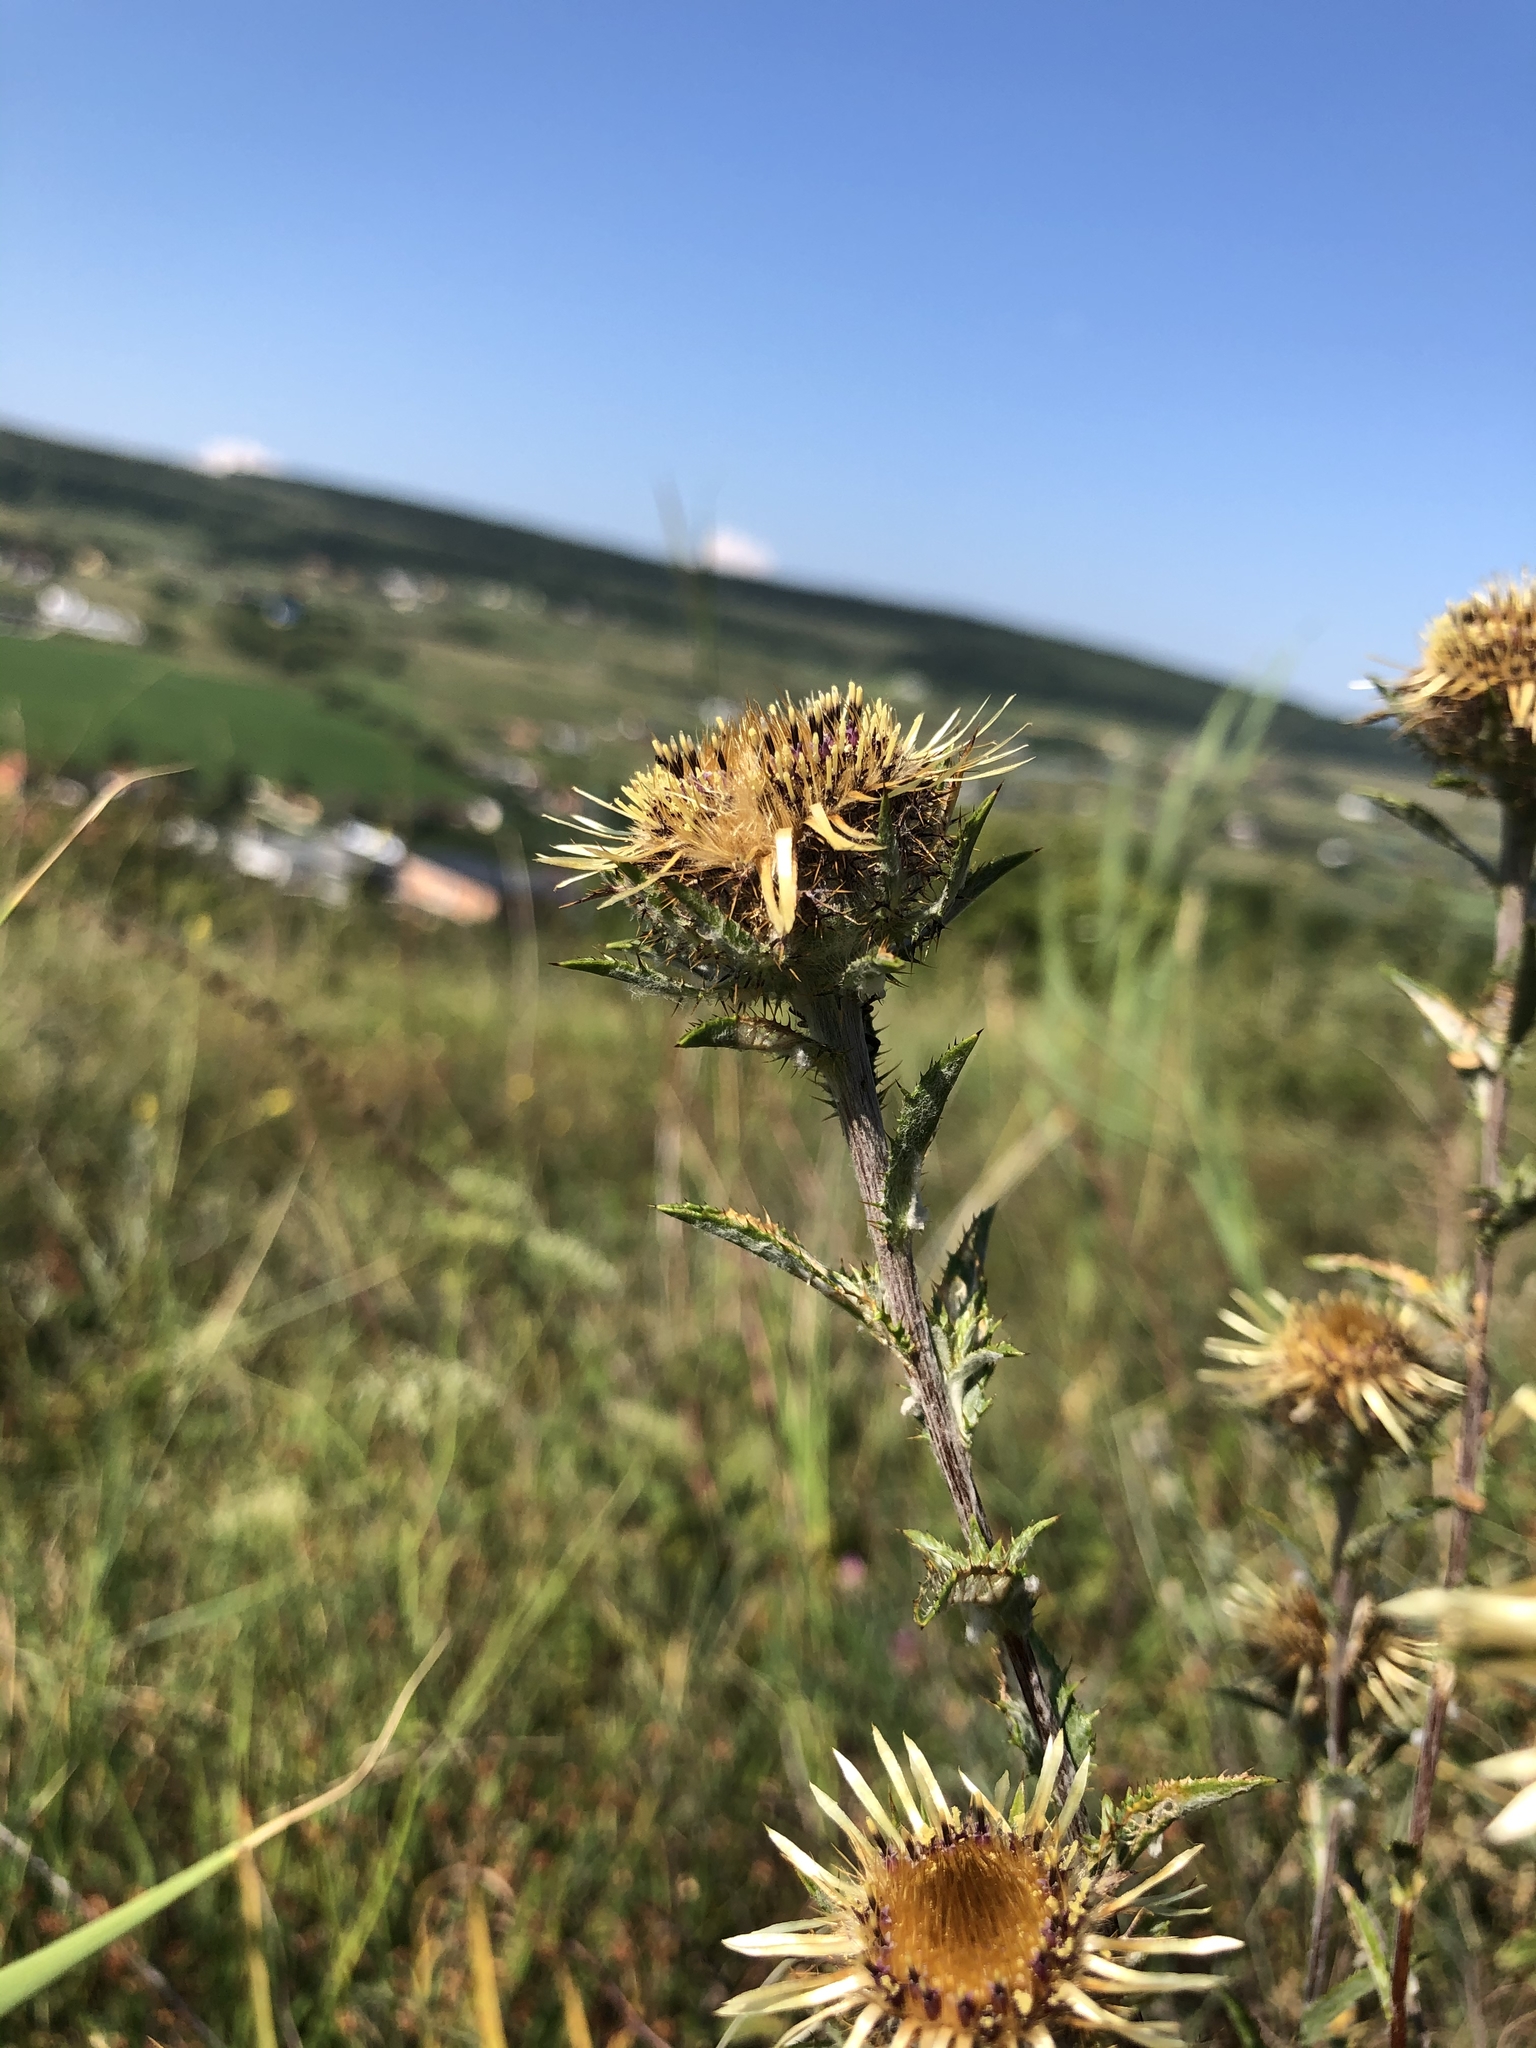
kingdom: Plantae
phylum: Tracheophyta
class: Magnoliopsida
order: Asterales
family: Asteraceae
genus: Carlina
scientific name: Carlina vulgaris
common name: Carline thistle
